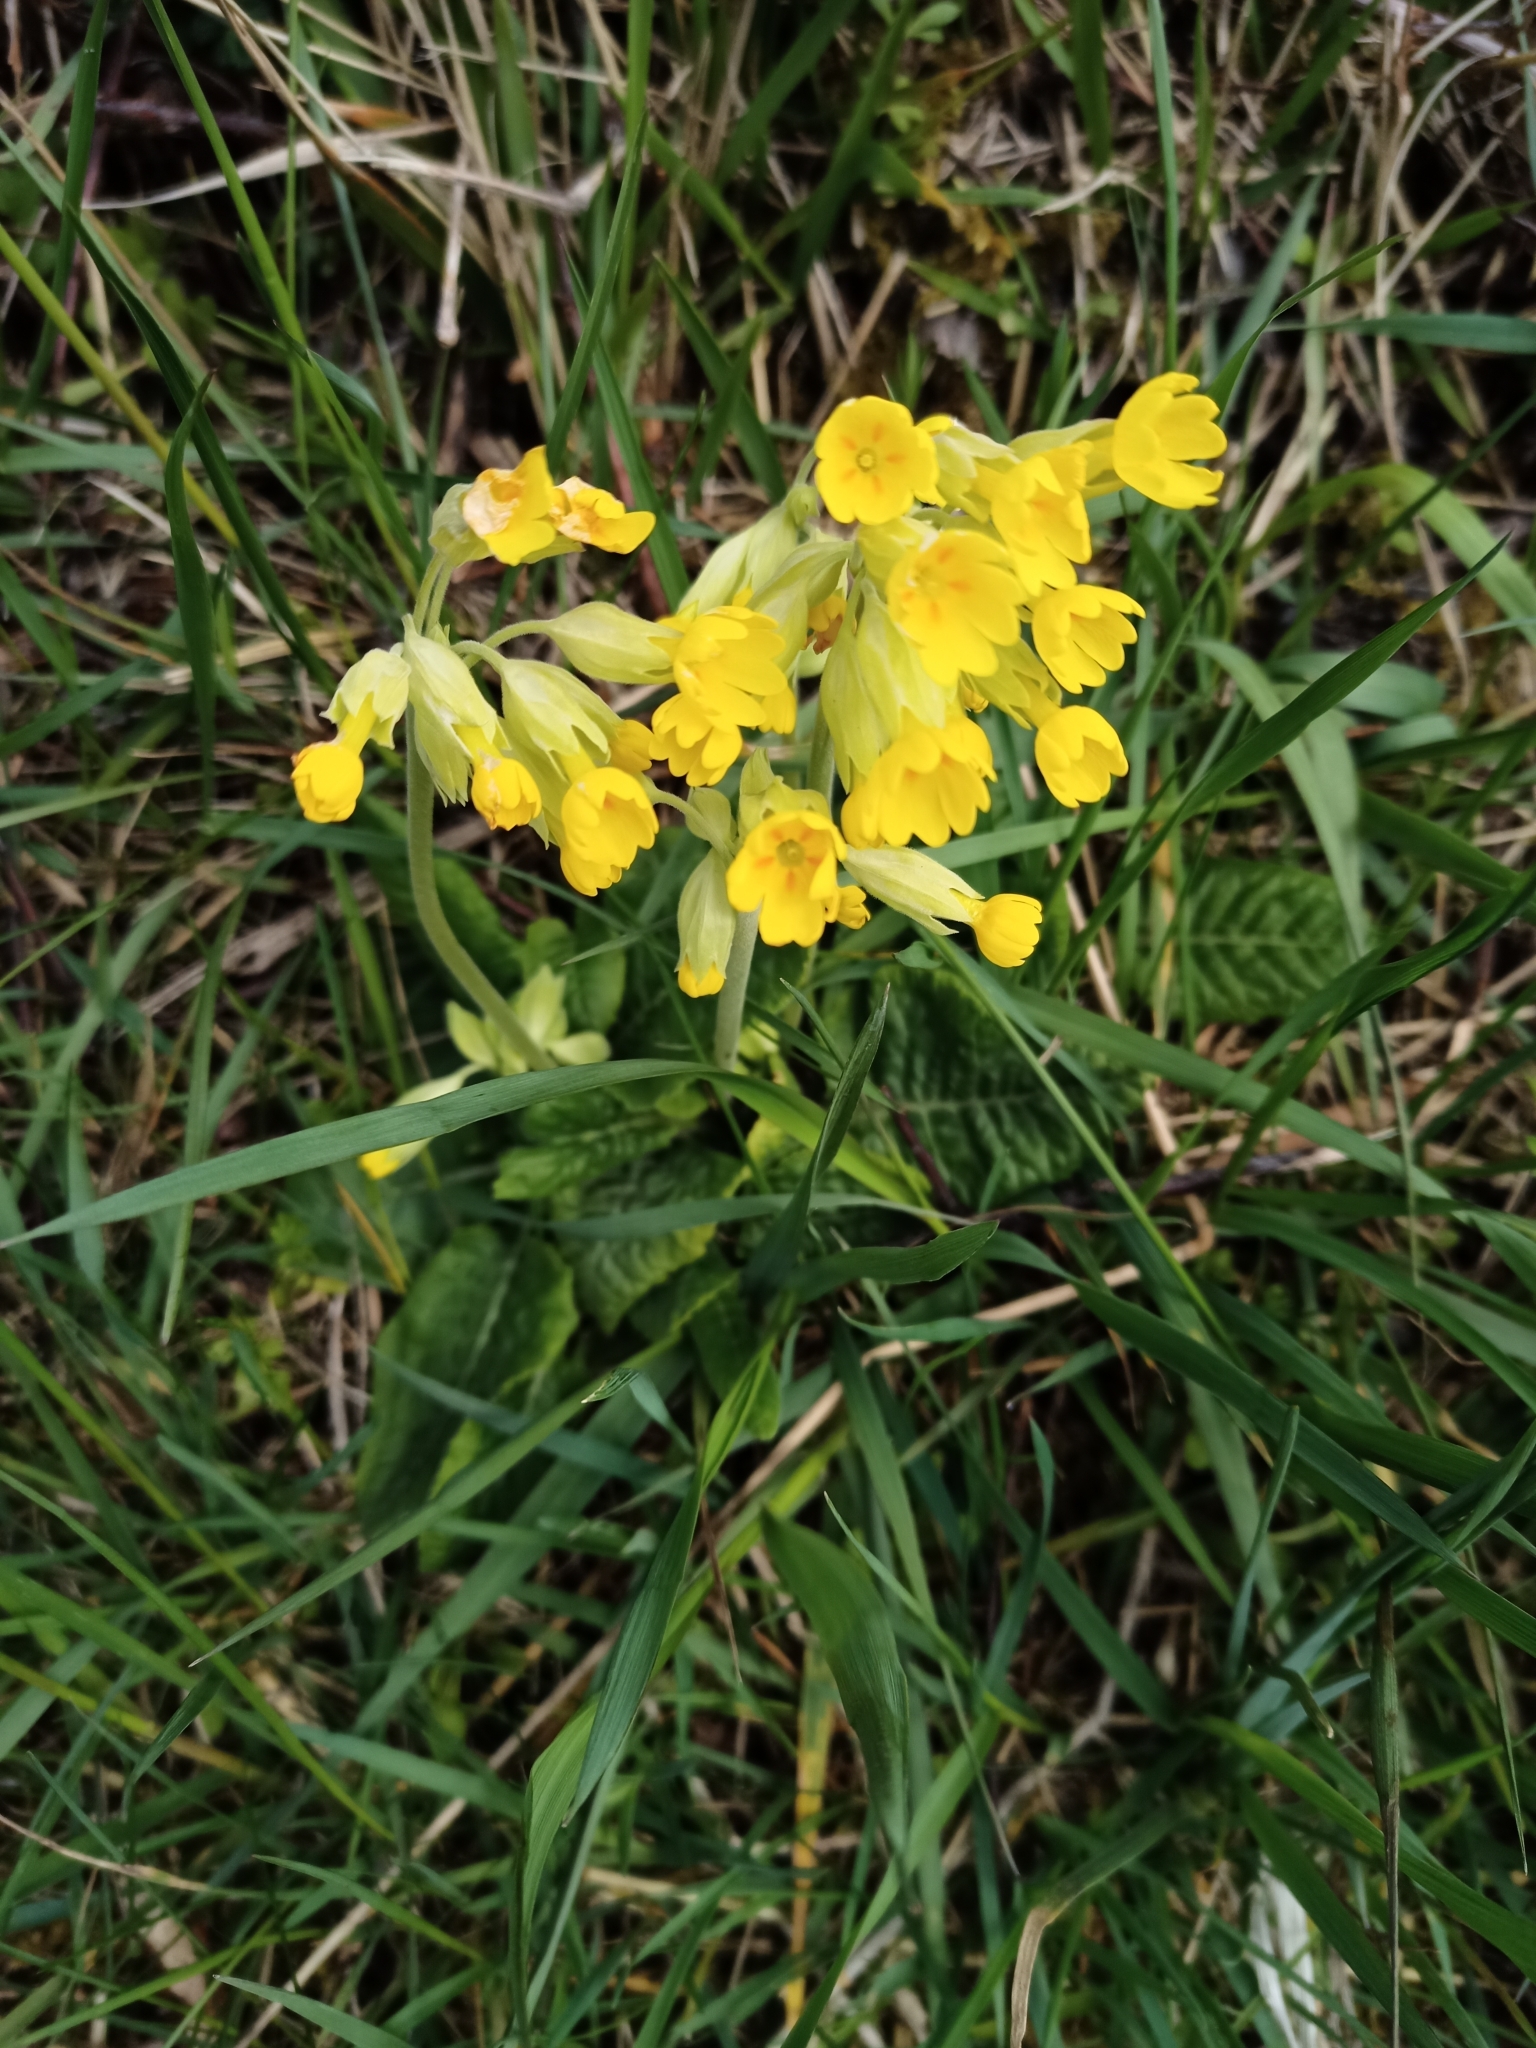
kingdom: Plantae
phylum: Tracheophyta
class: Magnoliopsida
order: Ericales
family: Primulaceae
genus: Primula
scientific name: Primula veris
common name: Cowslip
